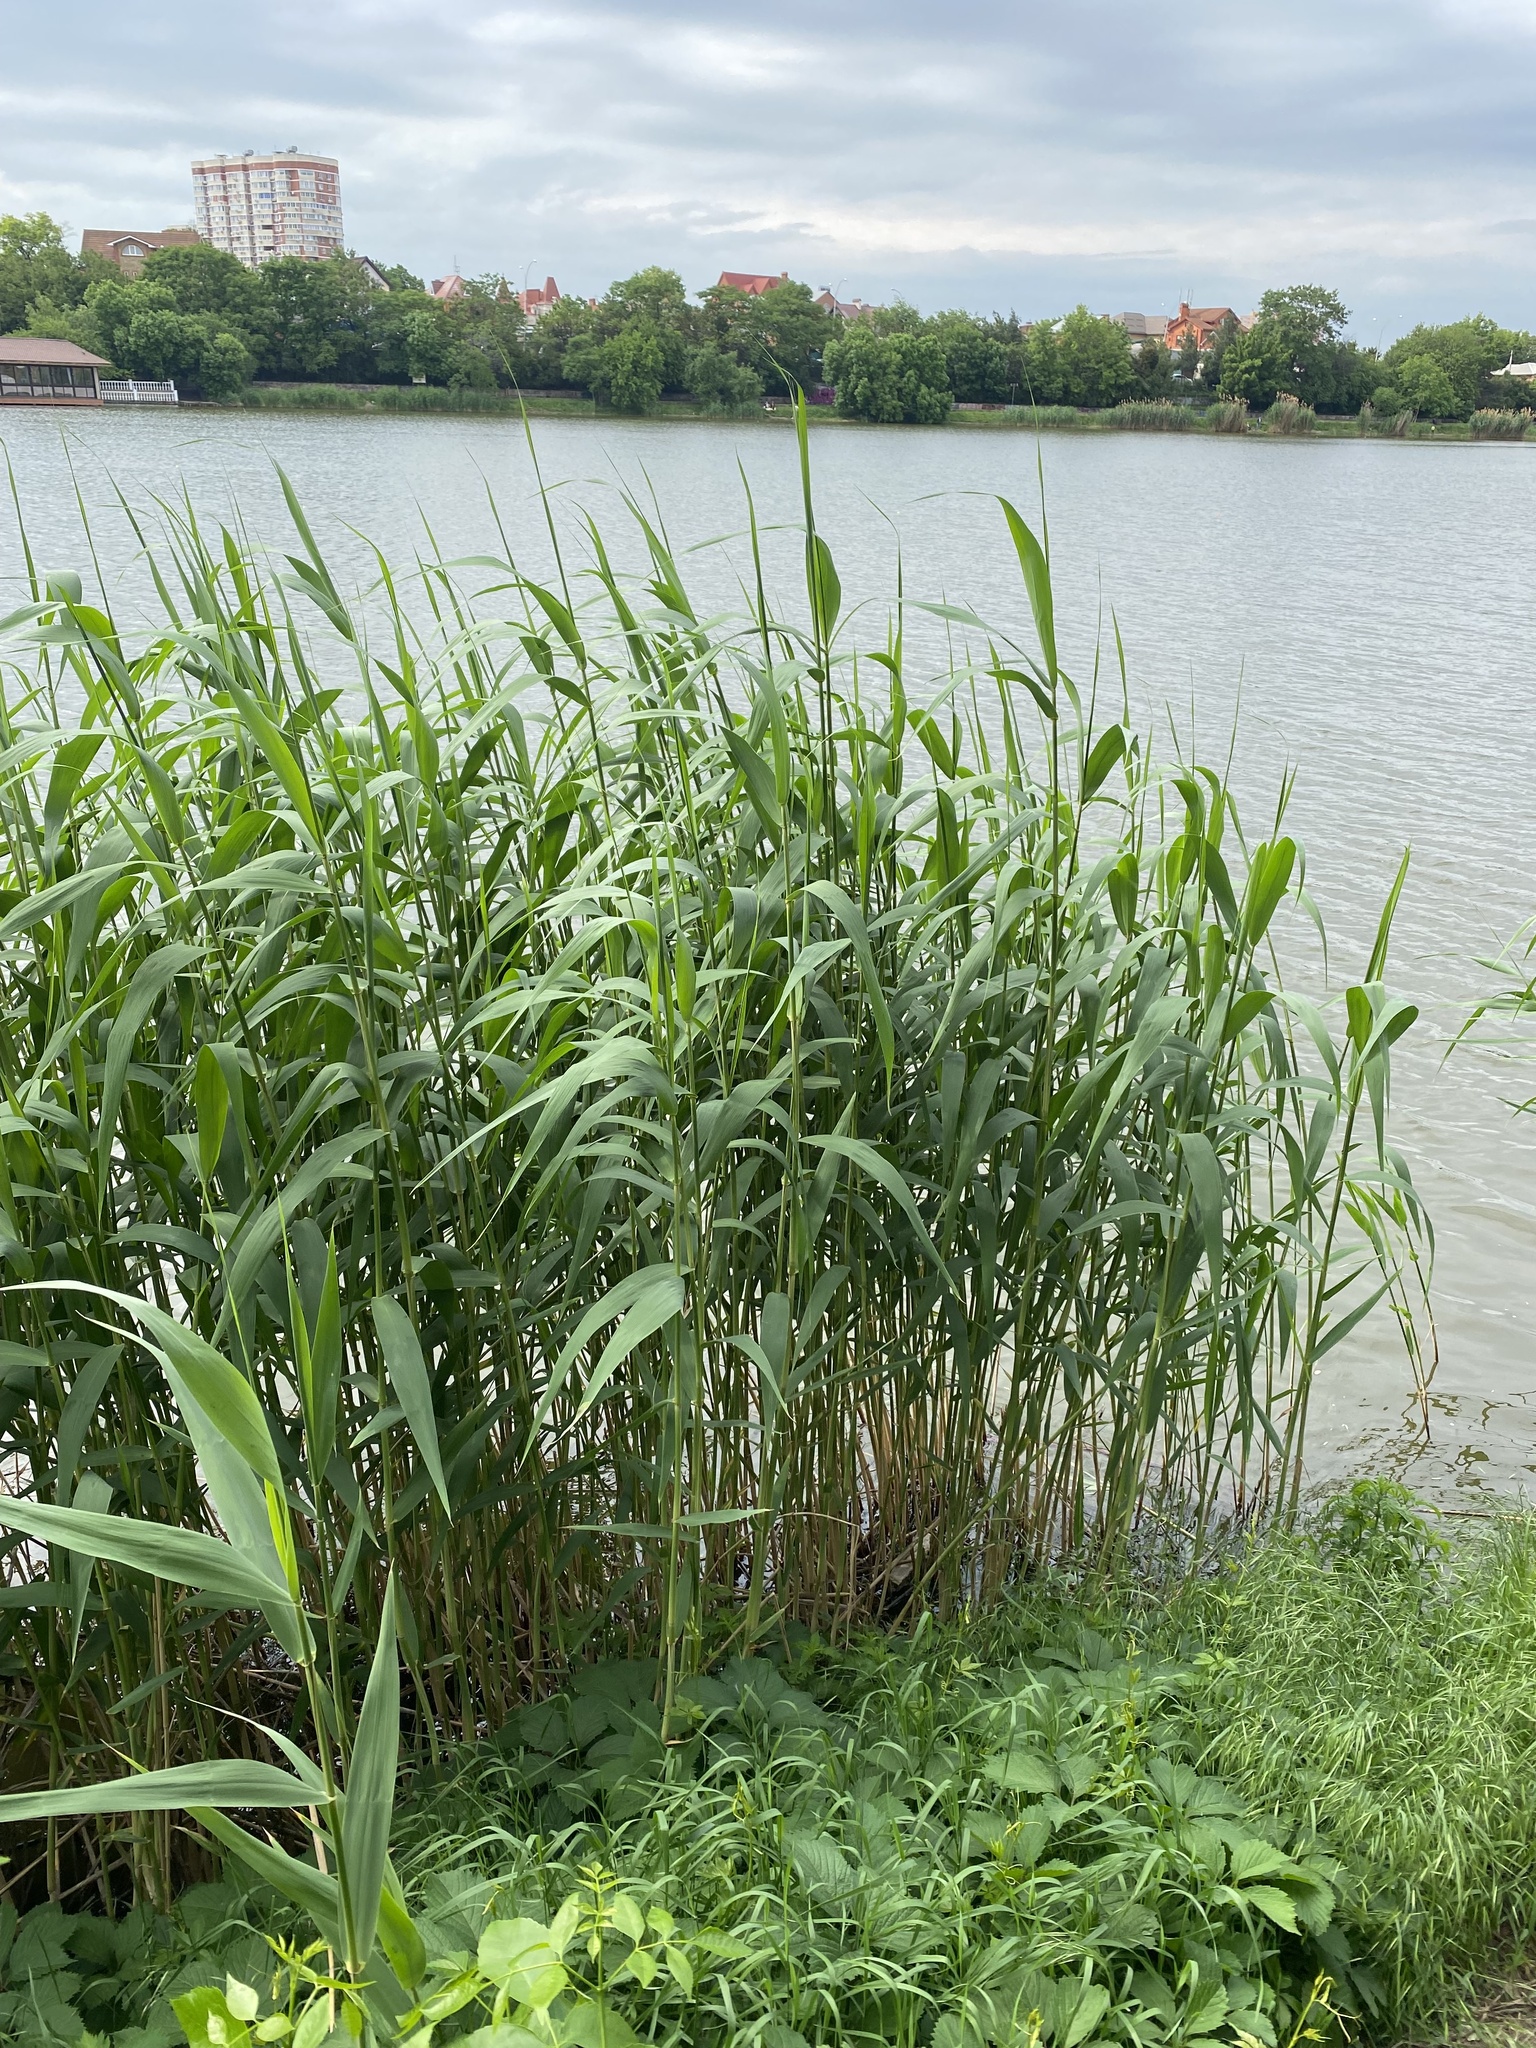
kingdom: Plantae
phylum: Tracheophyta
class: Liliopsida
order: Poales
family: Poaceae
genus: Phragmites
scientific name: Phragmites australis
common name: Common reed
